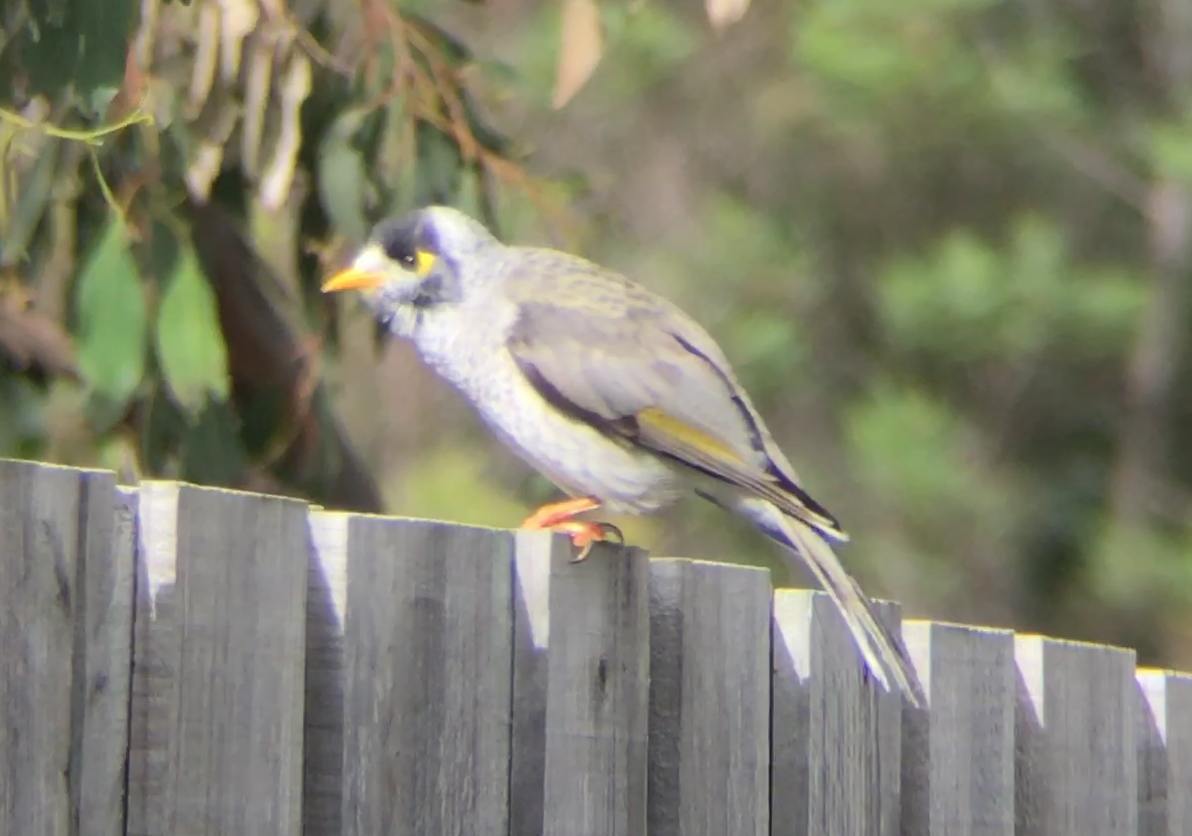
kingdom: Animalia
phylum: Chordata
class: Aves
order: Passeriformes
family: Meliphagidae
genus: Manorina
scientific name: Manorina melanocephala
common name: Noisy miner
